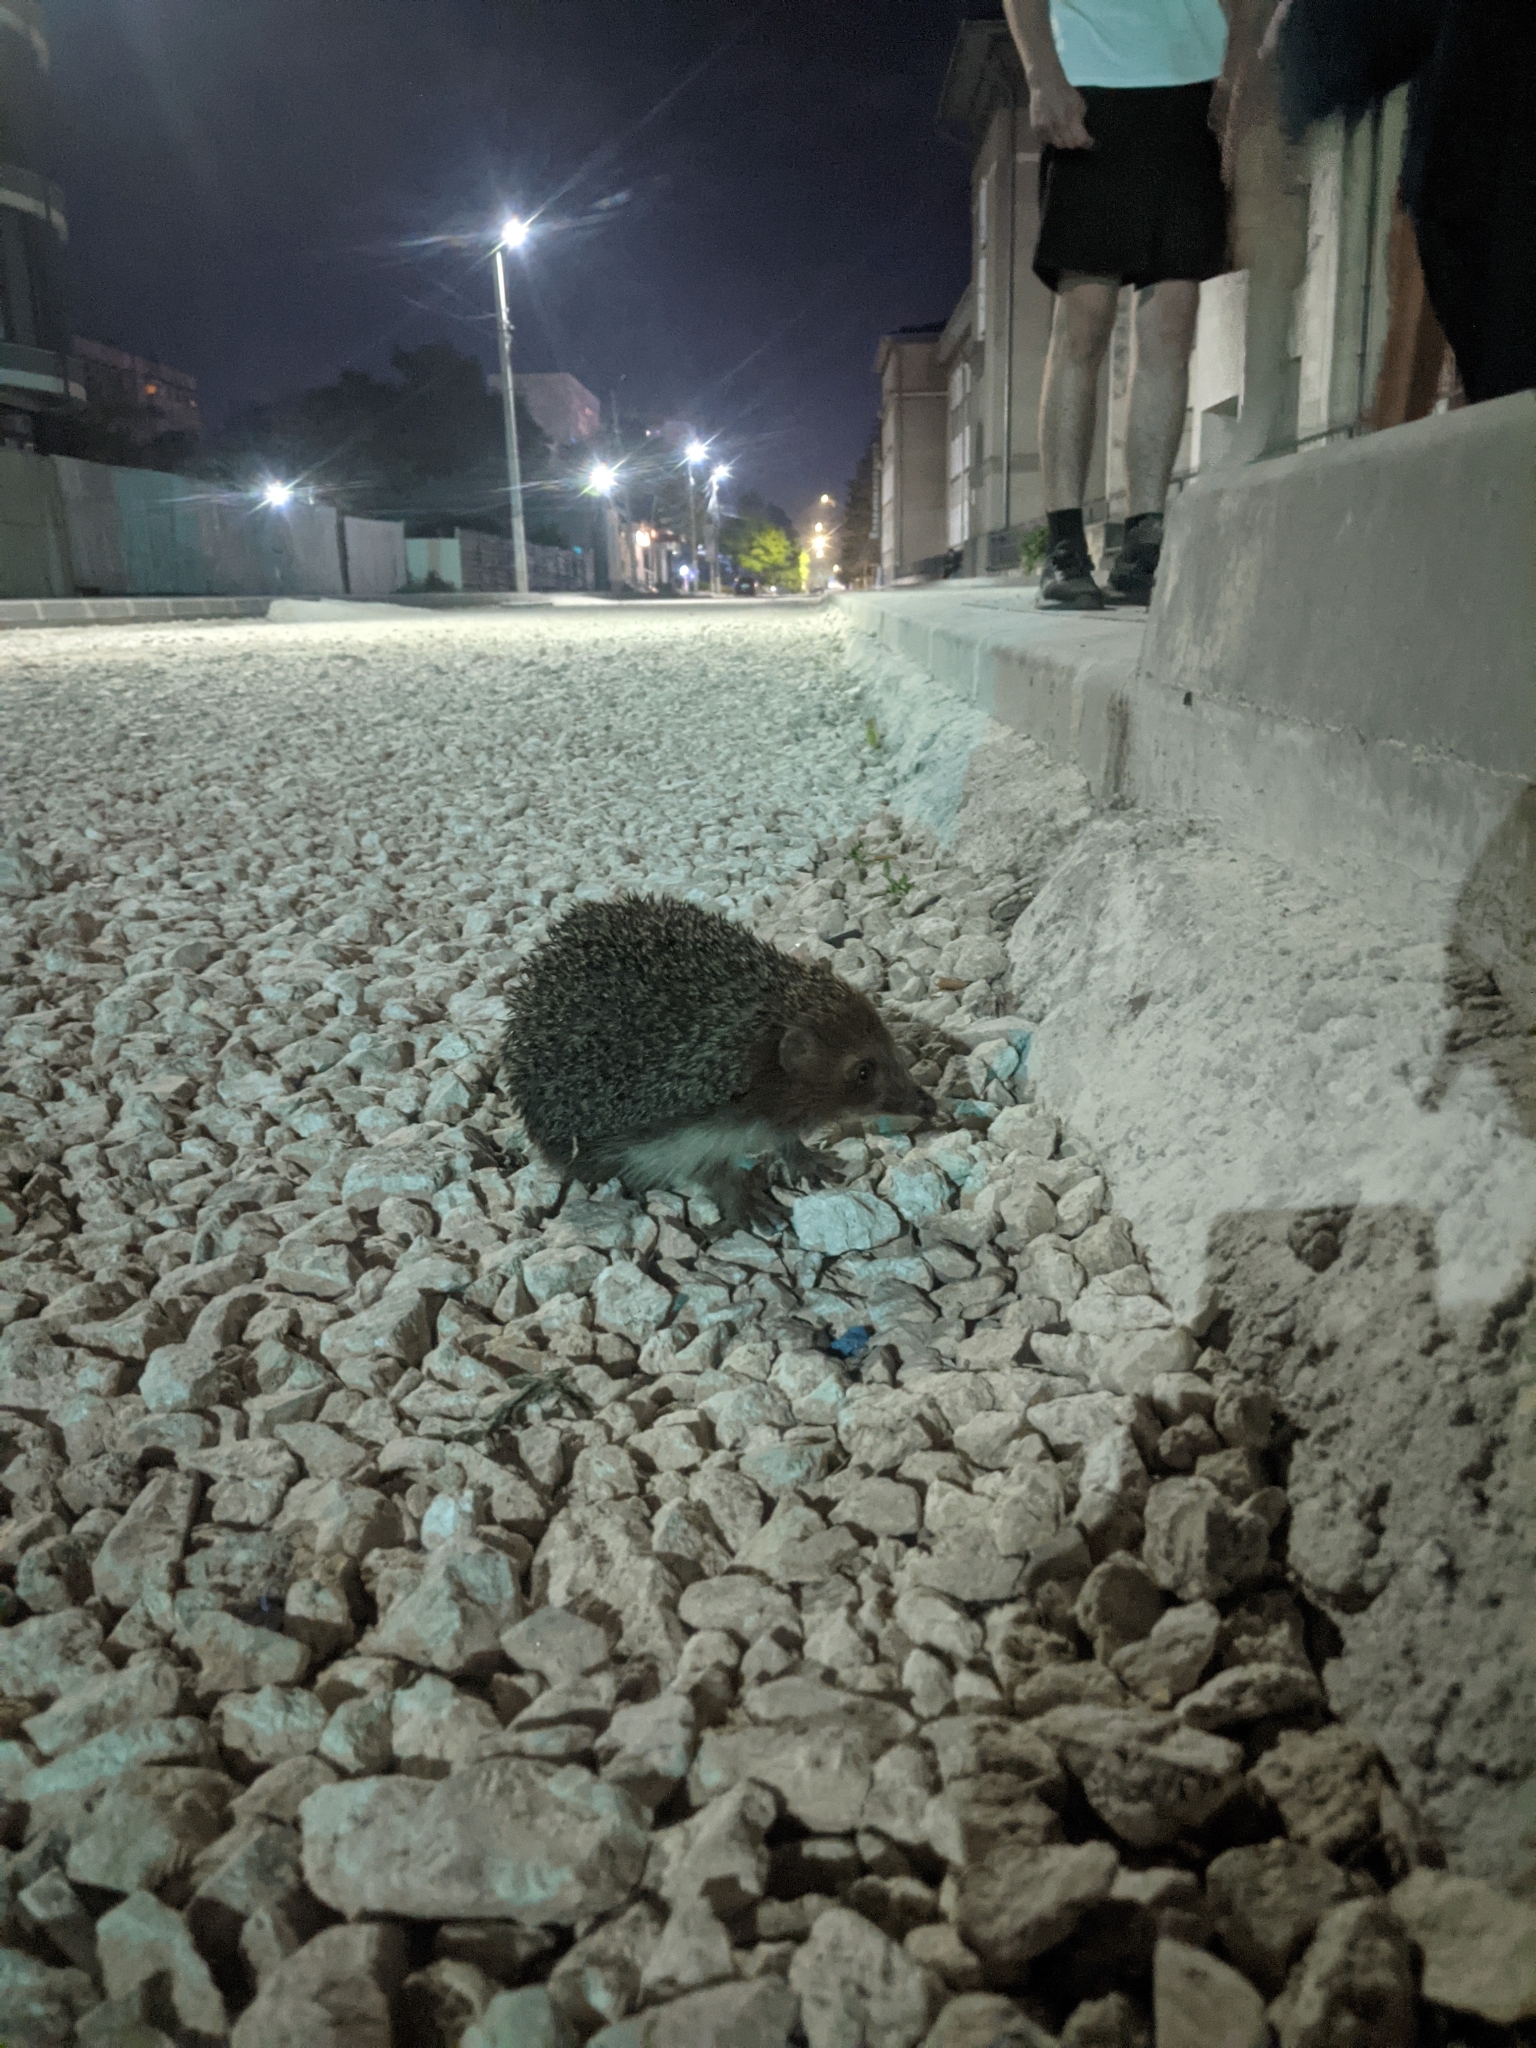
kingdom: Animalia
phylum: Chordata
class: Mammalia
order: Erinaceomorpha
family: Erinaceidae
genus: Erinaceus
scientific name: Erinaceus roumanicus
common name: Northern white-breasted hedgehog
